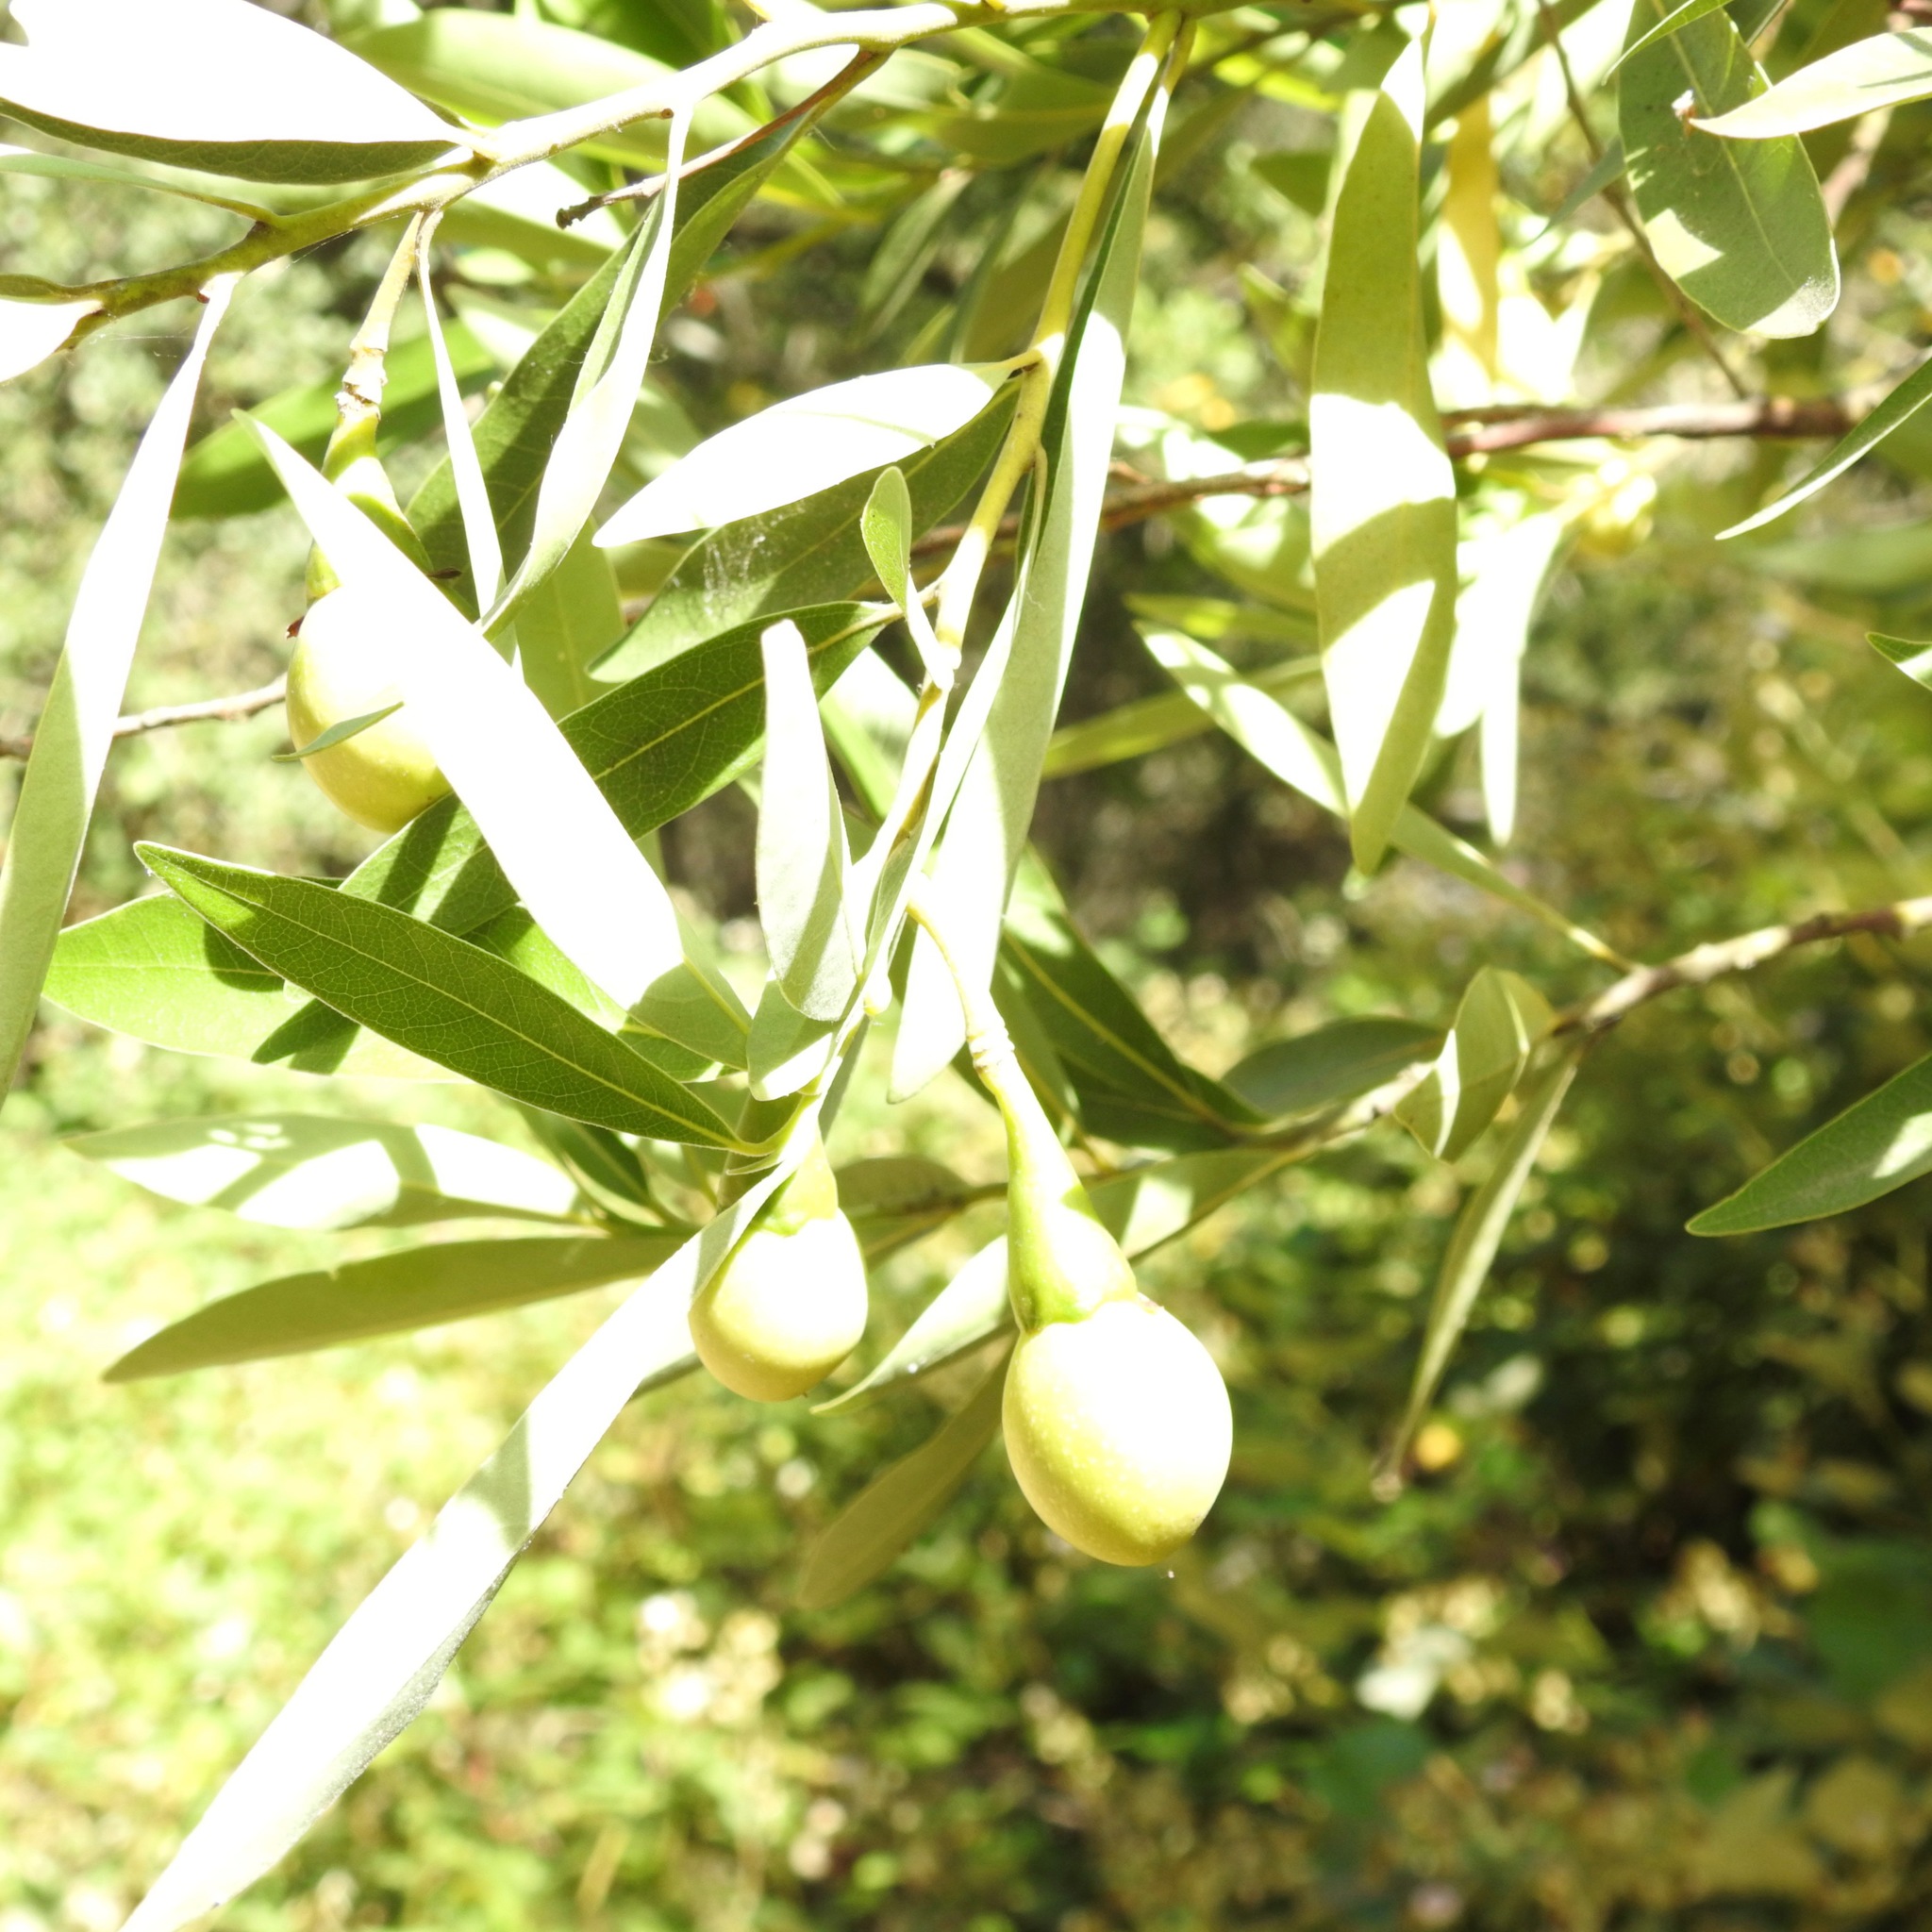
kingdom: Plantae
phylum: Tracheophyta
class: Magnoliopsida
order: Laurales
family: Lauraceae
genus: Umbellularia
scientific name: Umbellularia californica
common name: California bay
